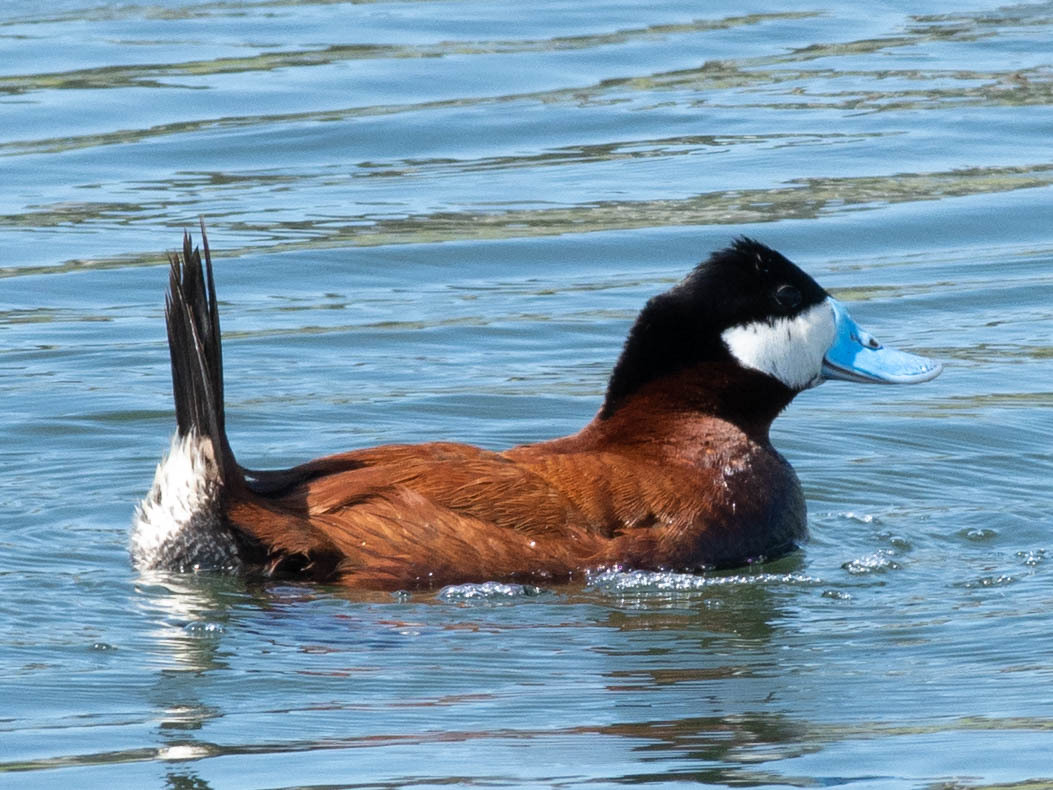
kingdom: Animalia
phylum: Chordata
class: Aves
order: Anseriformes
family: Anatidae
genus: Oxyura
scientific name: Oxyura jamaicensis
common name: Ruddy duck
